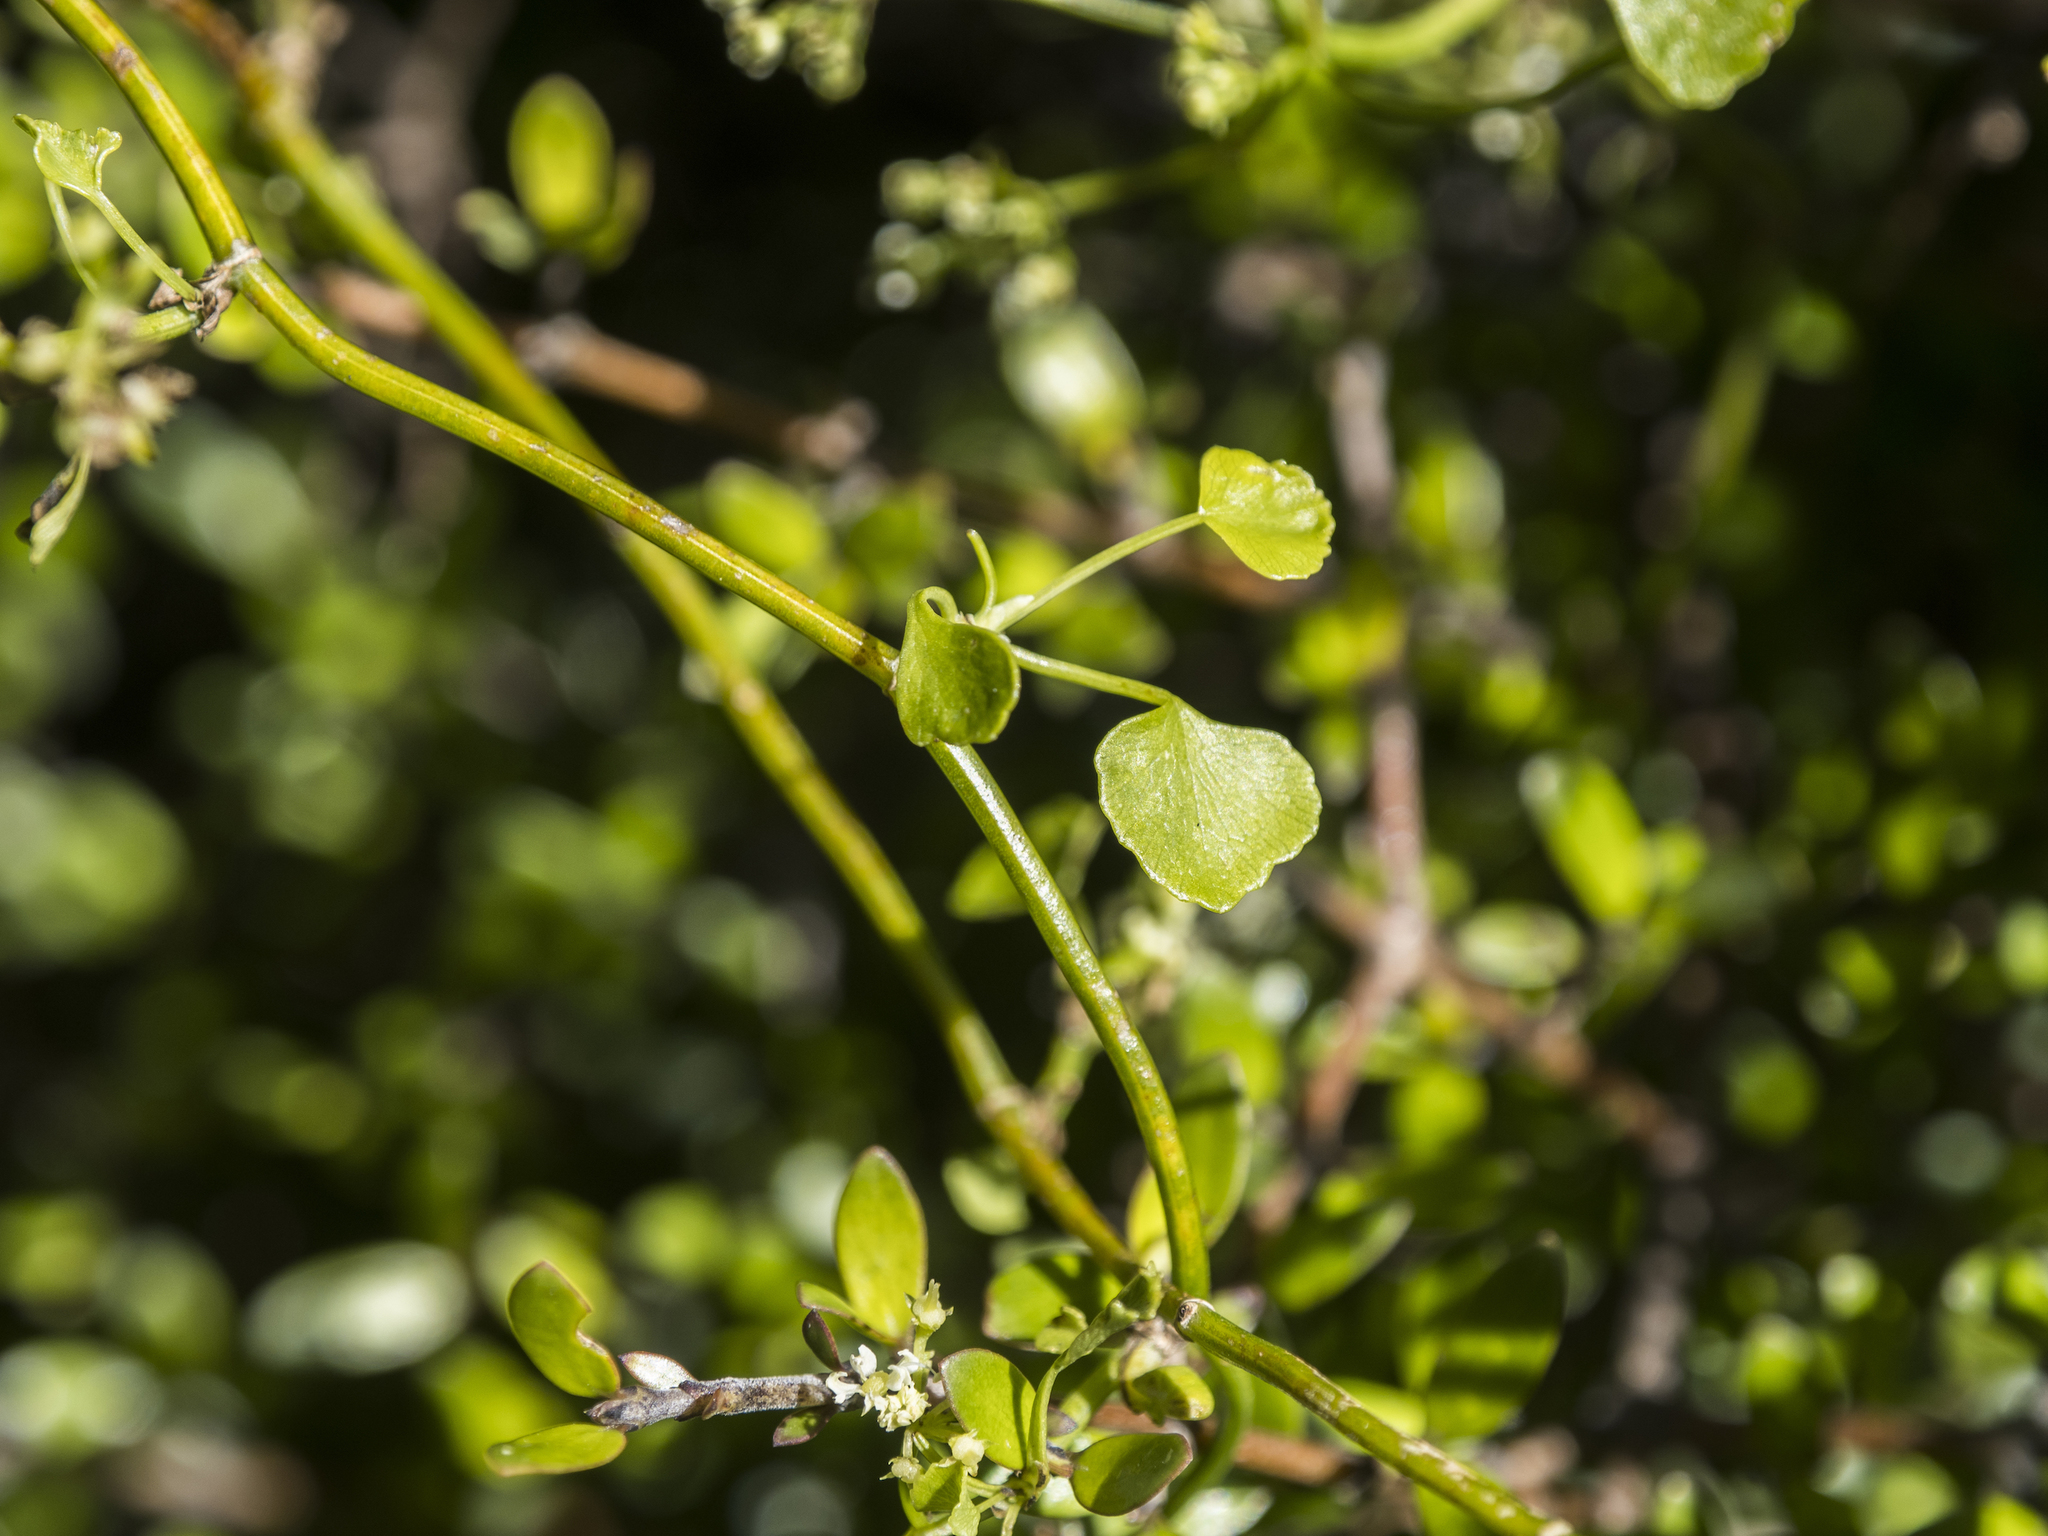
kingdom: Plantae
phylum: Tracheophyta
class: Magnoliopsida
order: Apiales
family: Apiaceae
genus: Scandia
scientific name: Scandia geniculata
